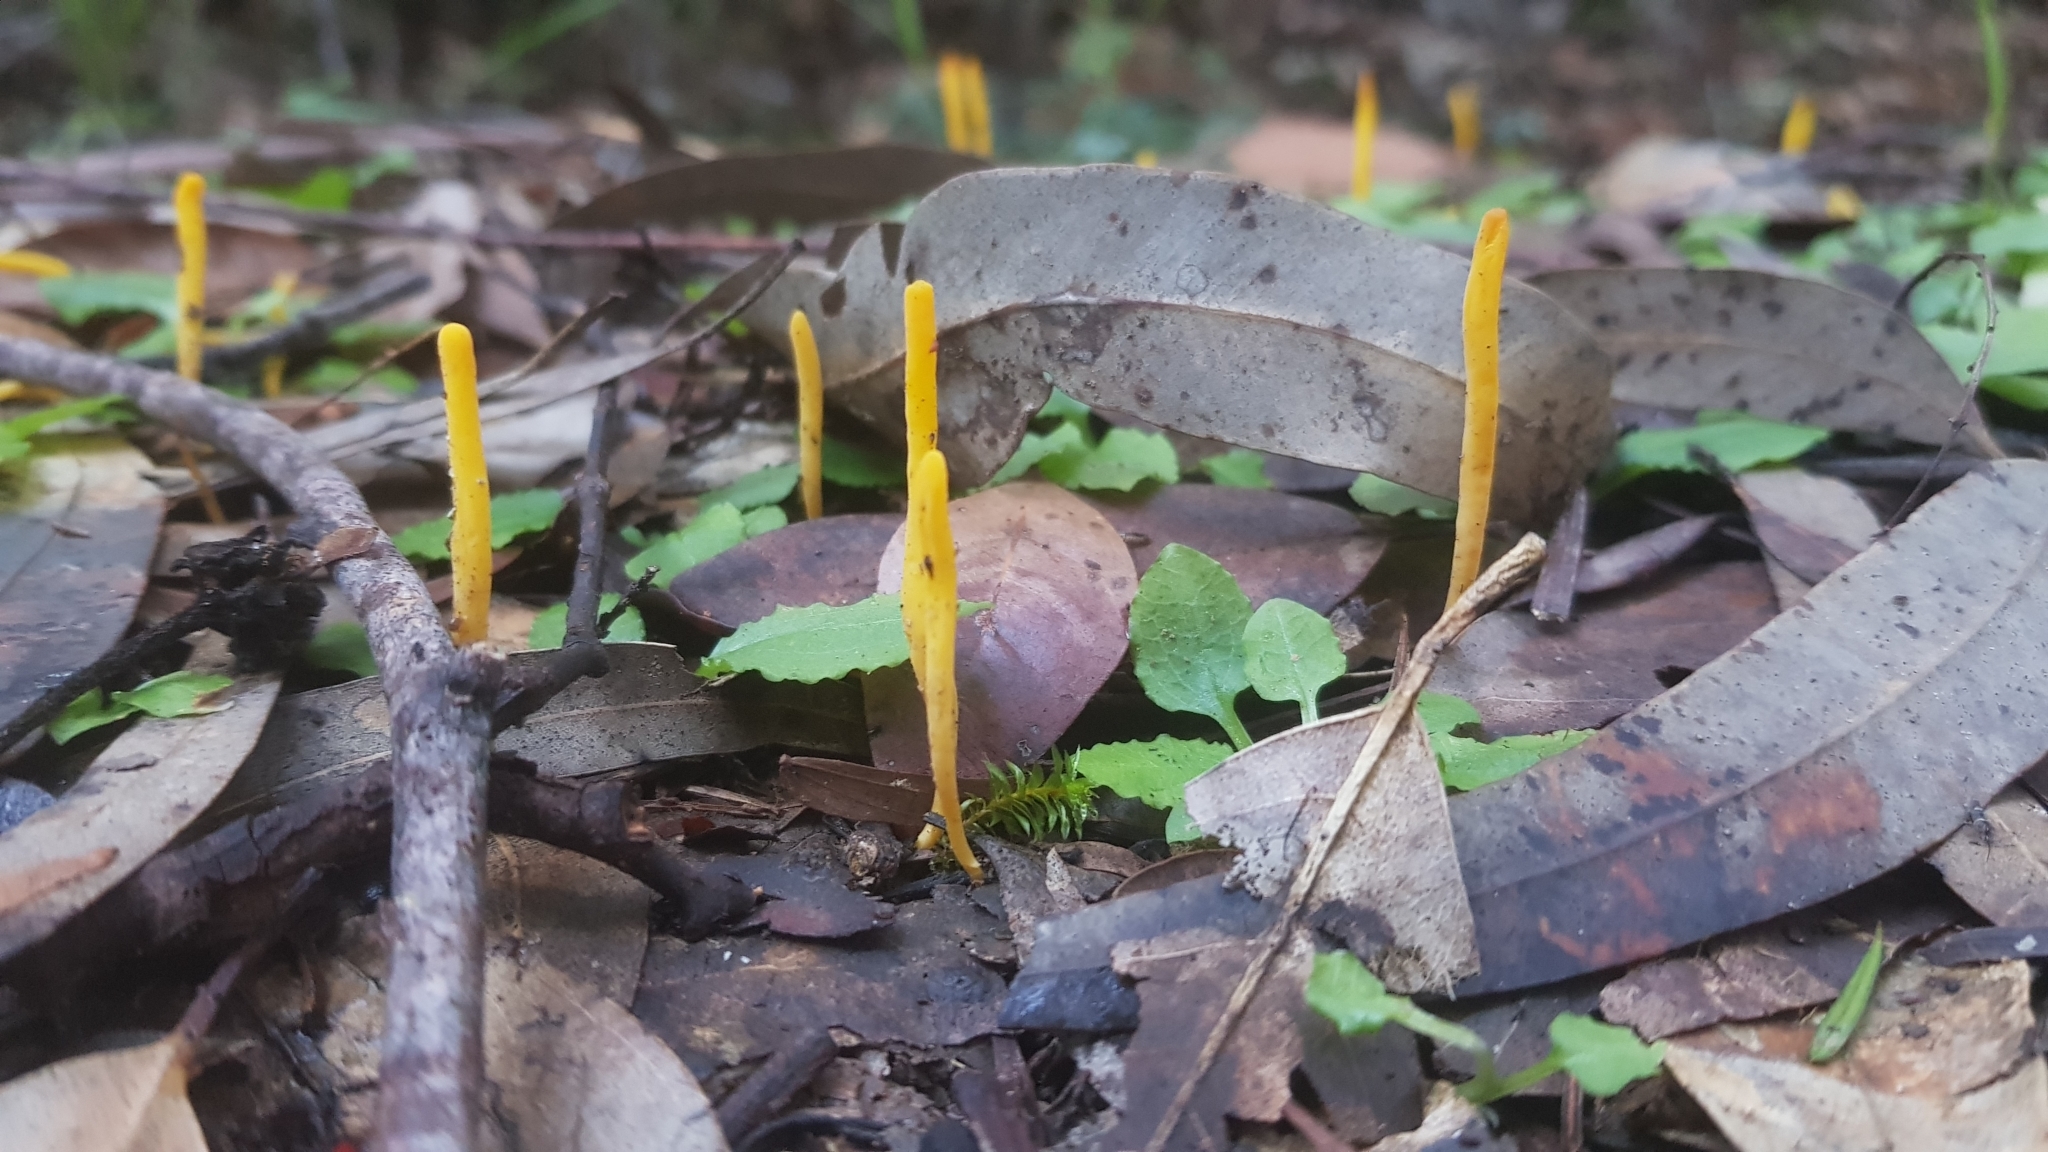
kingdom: Fungi
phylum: Basidiomycota
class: Agaricomycetes
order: Agaricales
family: Clavariaceae
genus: Clavulinopsis
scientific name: Clavulinopsis amoena
